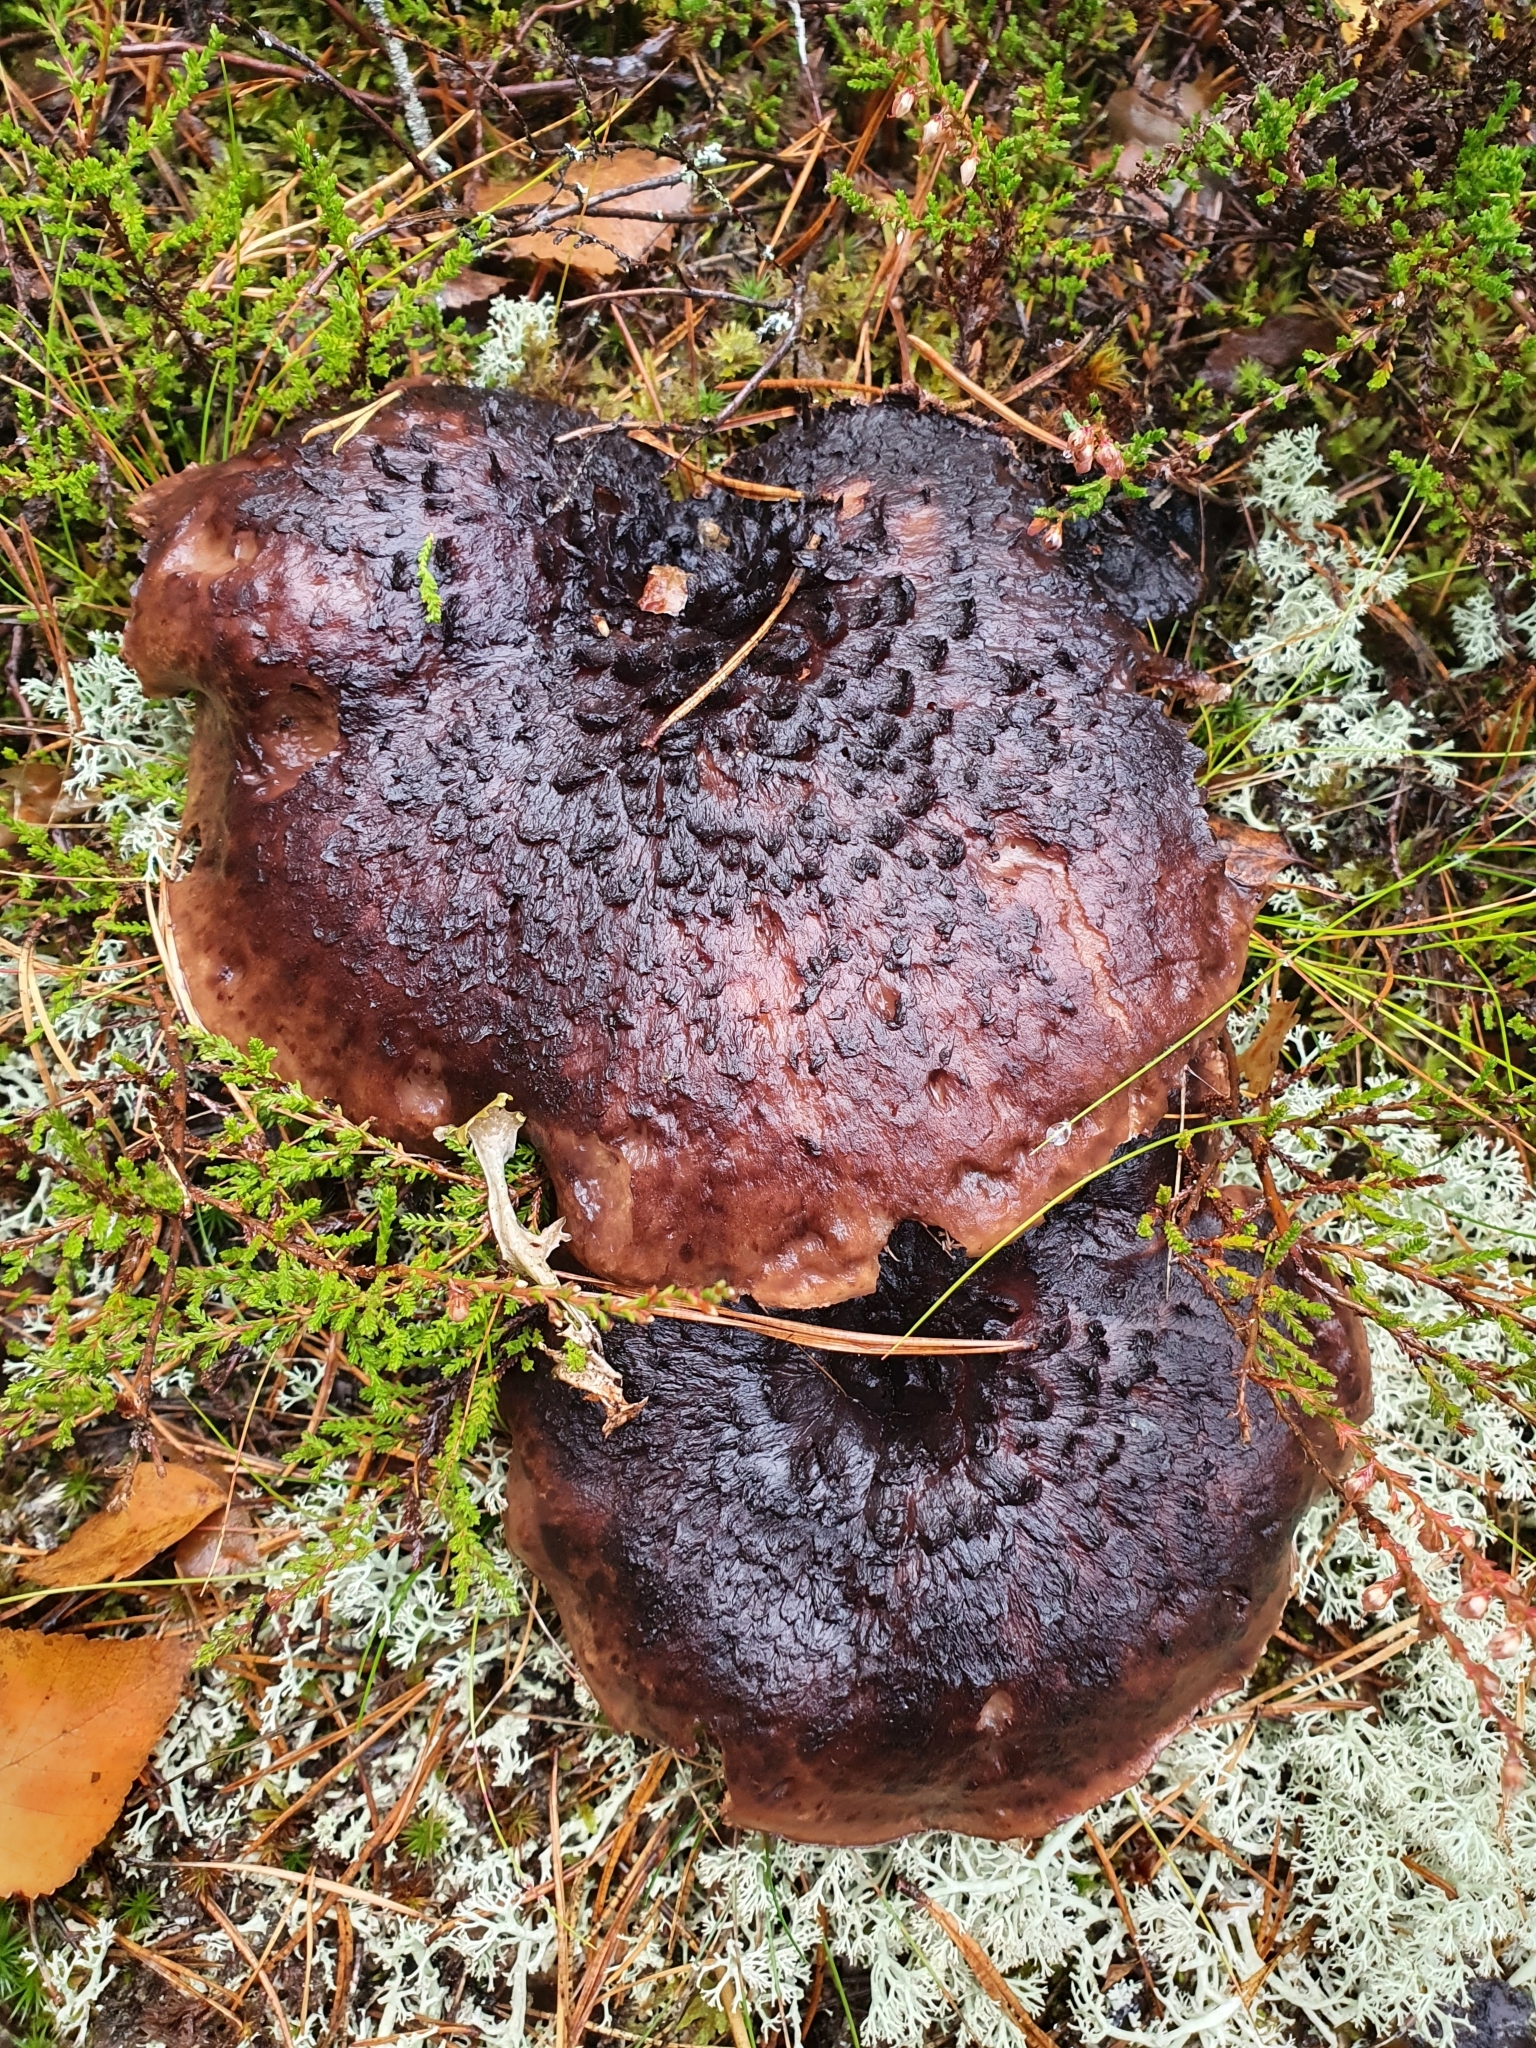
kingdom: Fungi
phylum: Basidiomycota
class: Agaricomycetes
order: Thelephorales
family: Bankeraceae
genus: Sarcodon
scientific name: Sarcodon squamosus
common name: Scaly tooth
